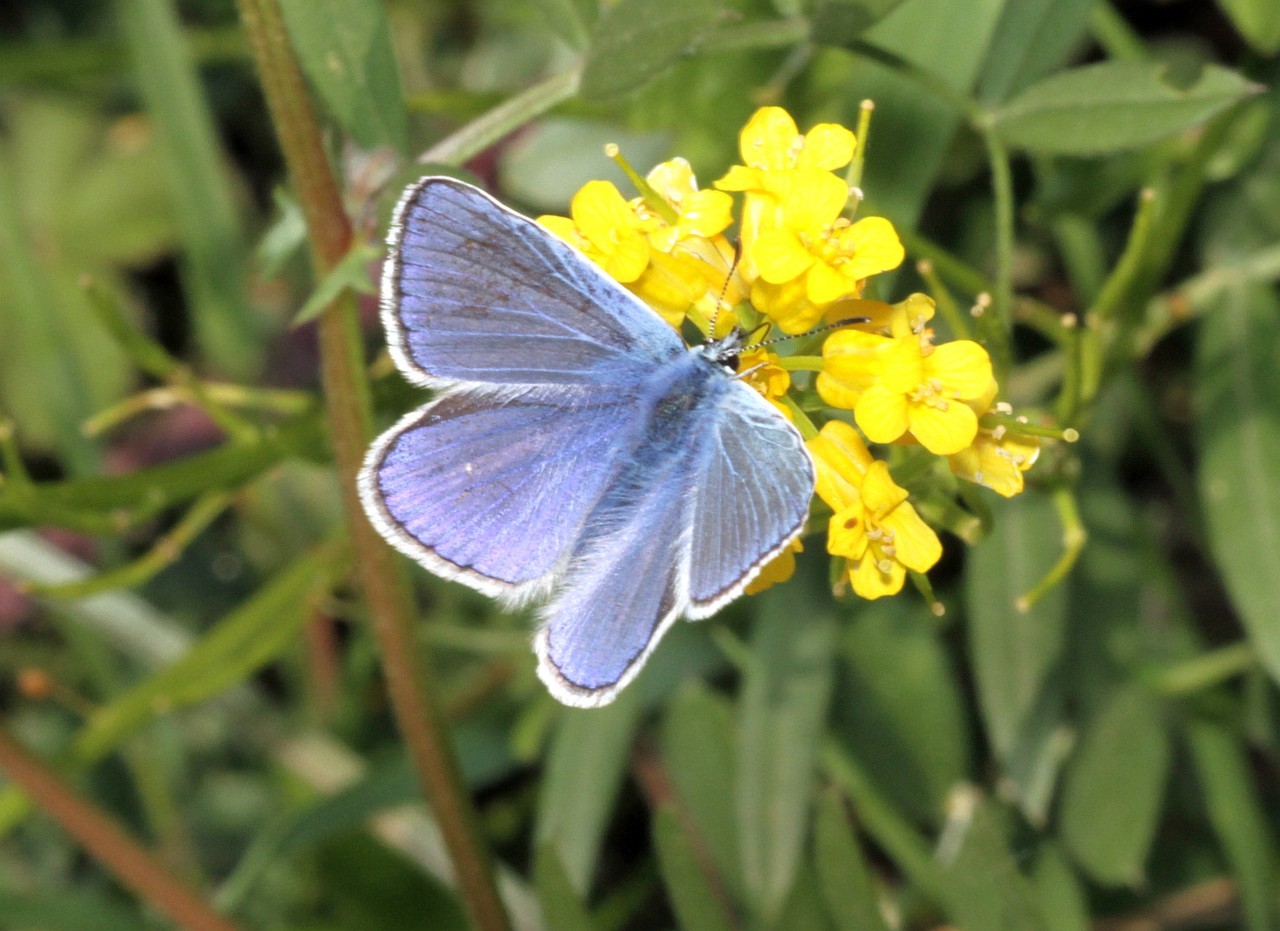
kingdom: Animalia
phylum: Arthropoda
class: Insecta
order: Lepidoptera
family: Lycaenidae
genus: Polyommatus
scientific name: Polyommatus icarus
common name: Common blue
